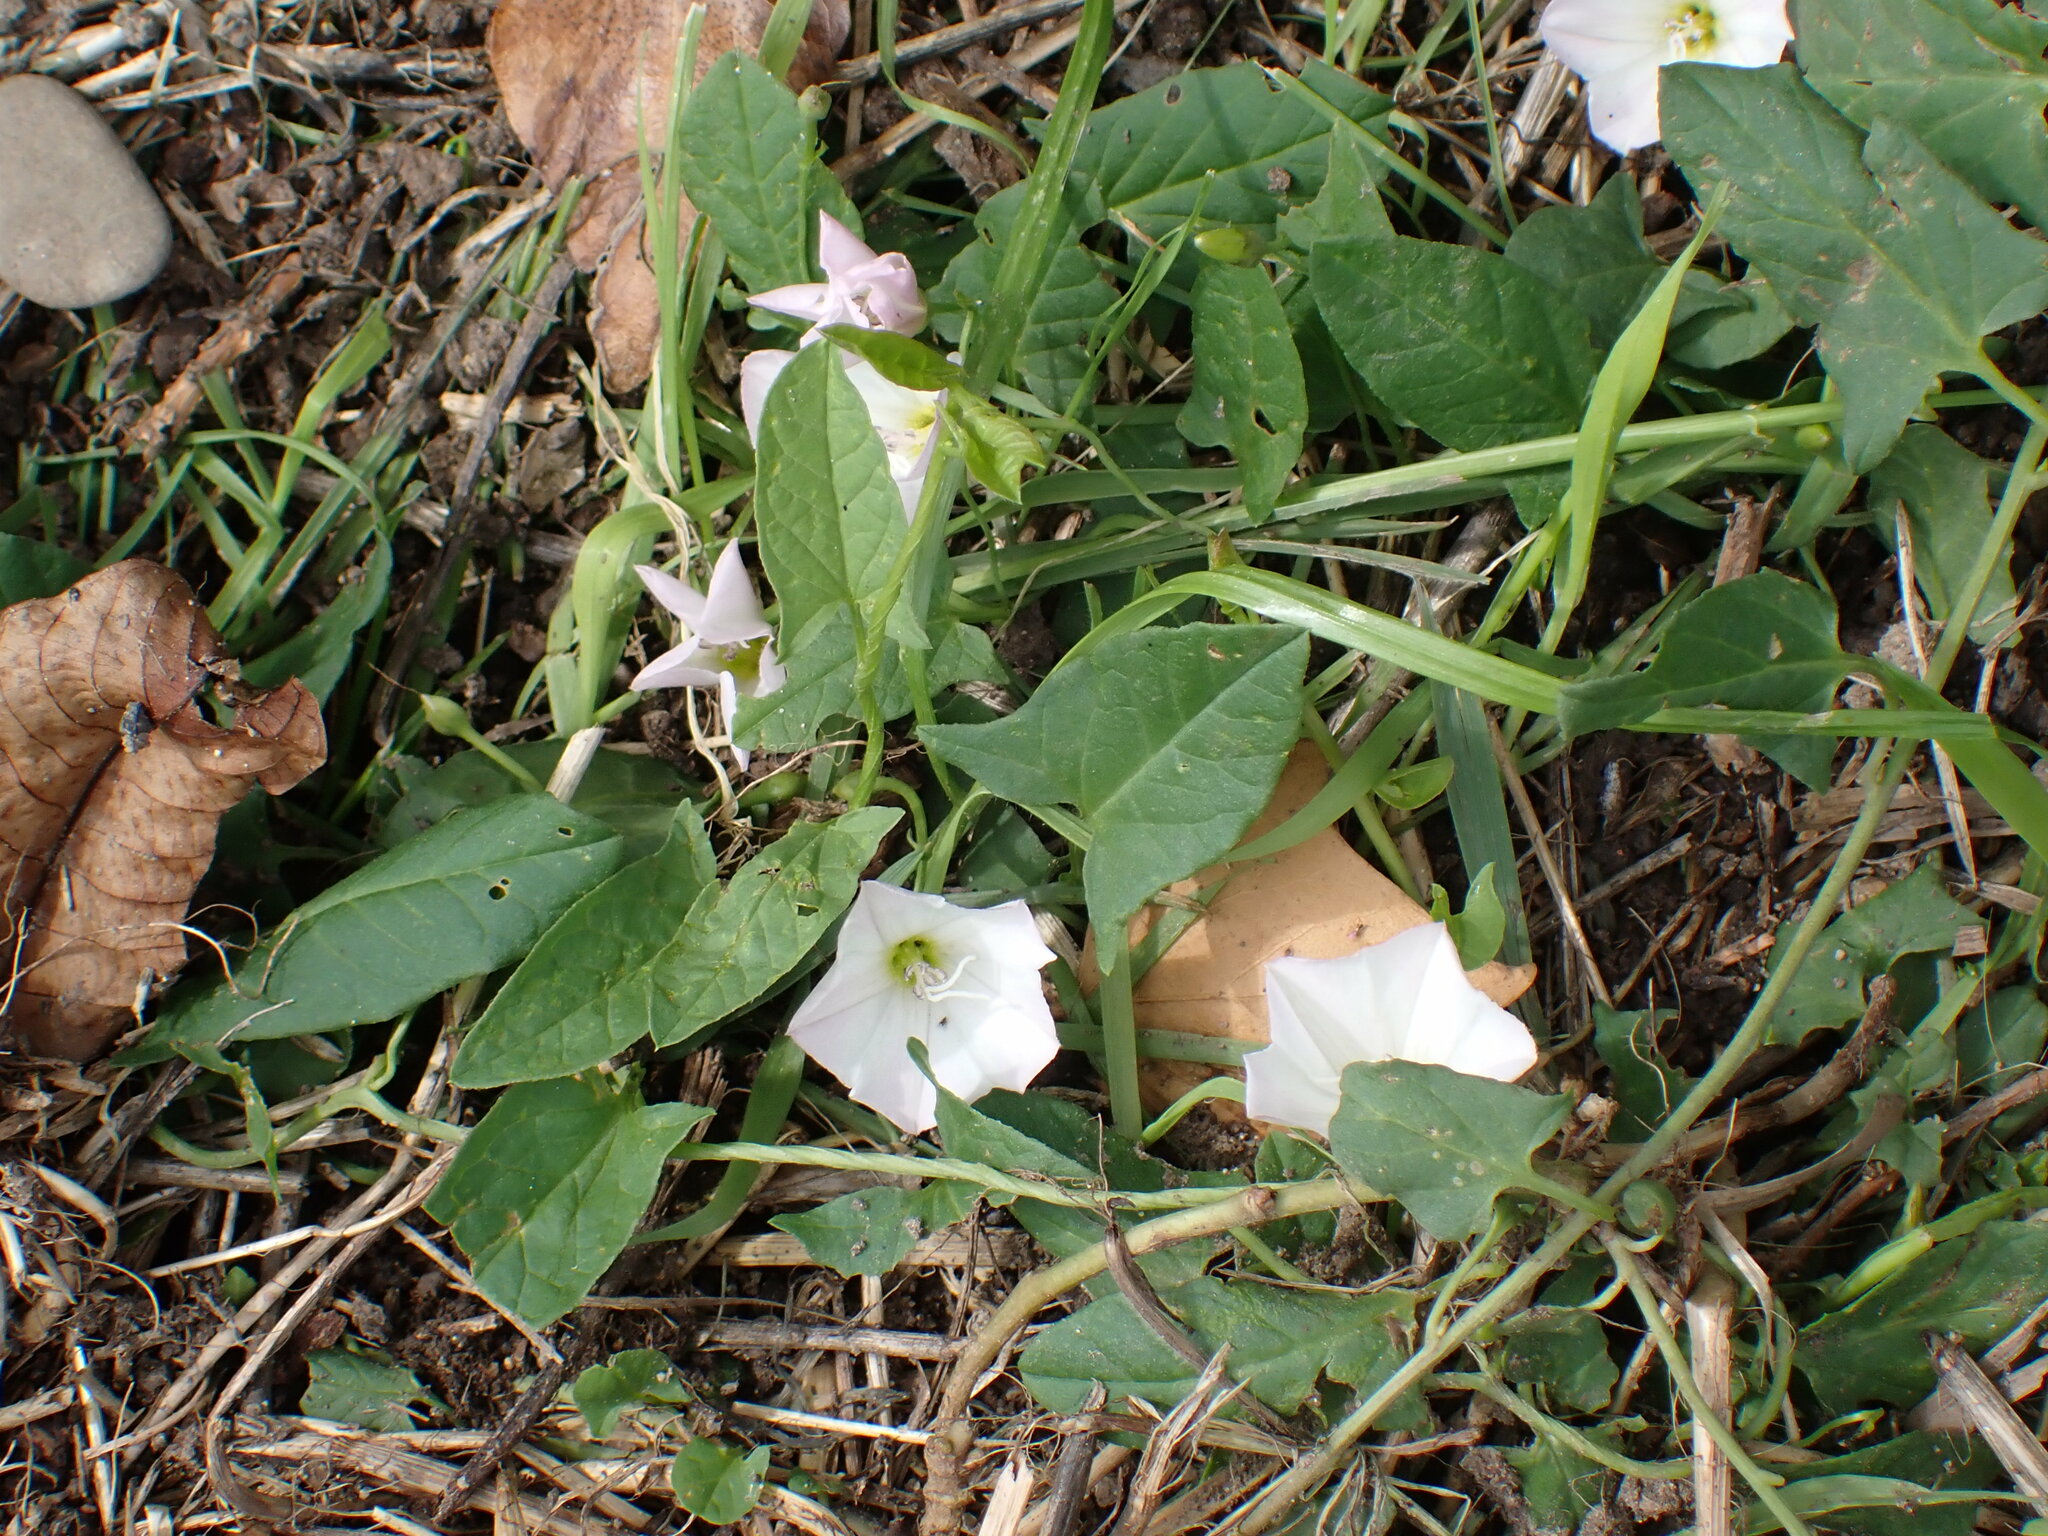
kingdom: Plantae
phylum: Tracheophyta
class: Magnoliopsida
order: Solanales
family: Convolvulaceae
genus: Convolvulus
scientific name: Convolvulus arvensis
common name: Field bindweed
